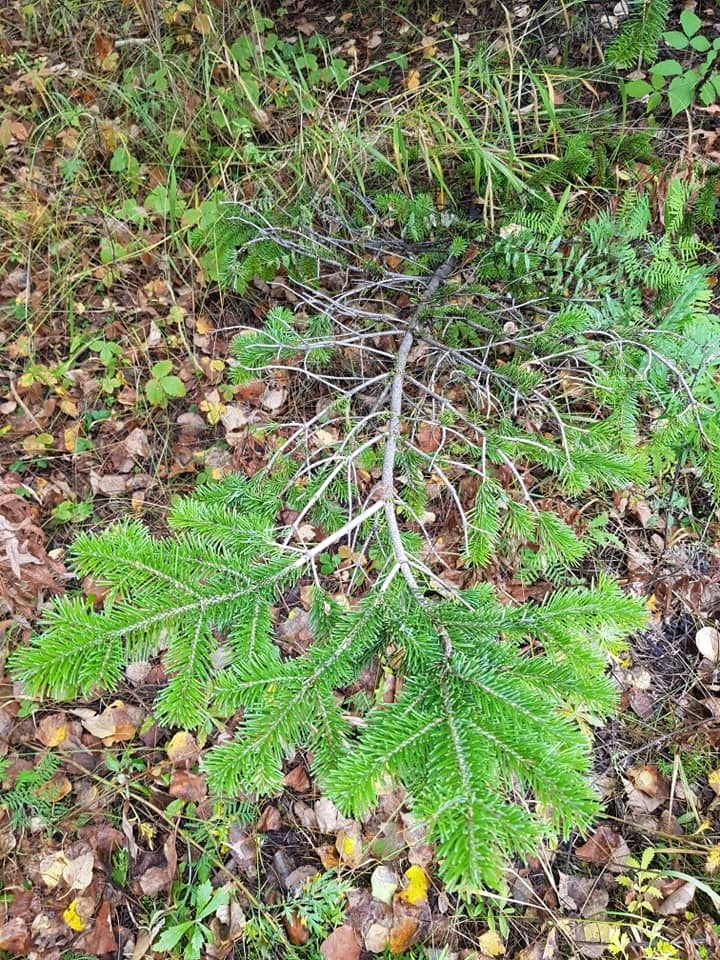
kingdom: Plantae
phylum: Tracheophyta
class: Pinopsida
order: Pinales
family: Pinaceae
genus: Abies
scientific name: Abies sibirica
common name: Siberian fir
